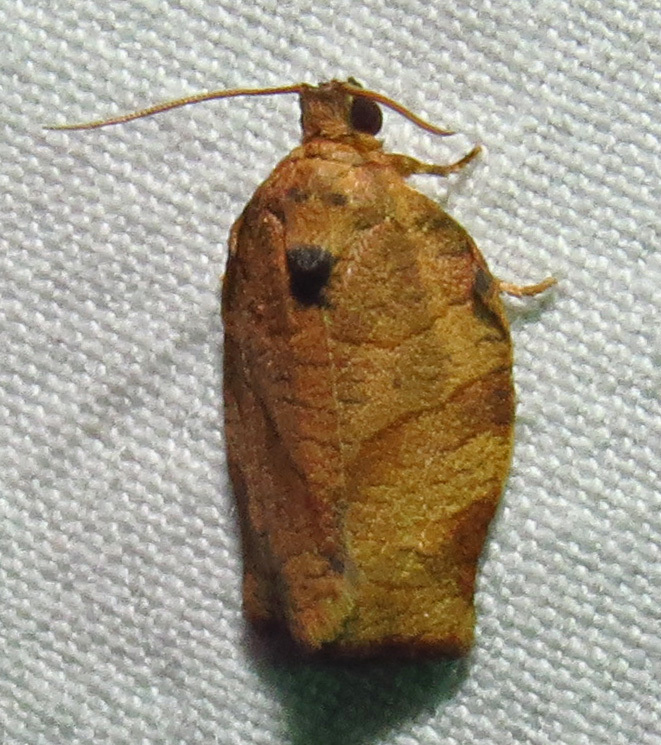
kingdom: Animalia
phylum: Arthropoda
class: Insecta
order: Lepidoptera
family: Tortricidae
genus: Choristoneura
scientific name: Choristoneura rosaceana
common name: Oblique-banded leafroller moth
